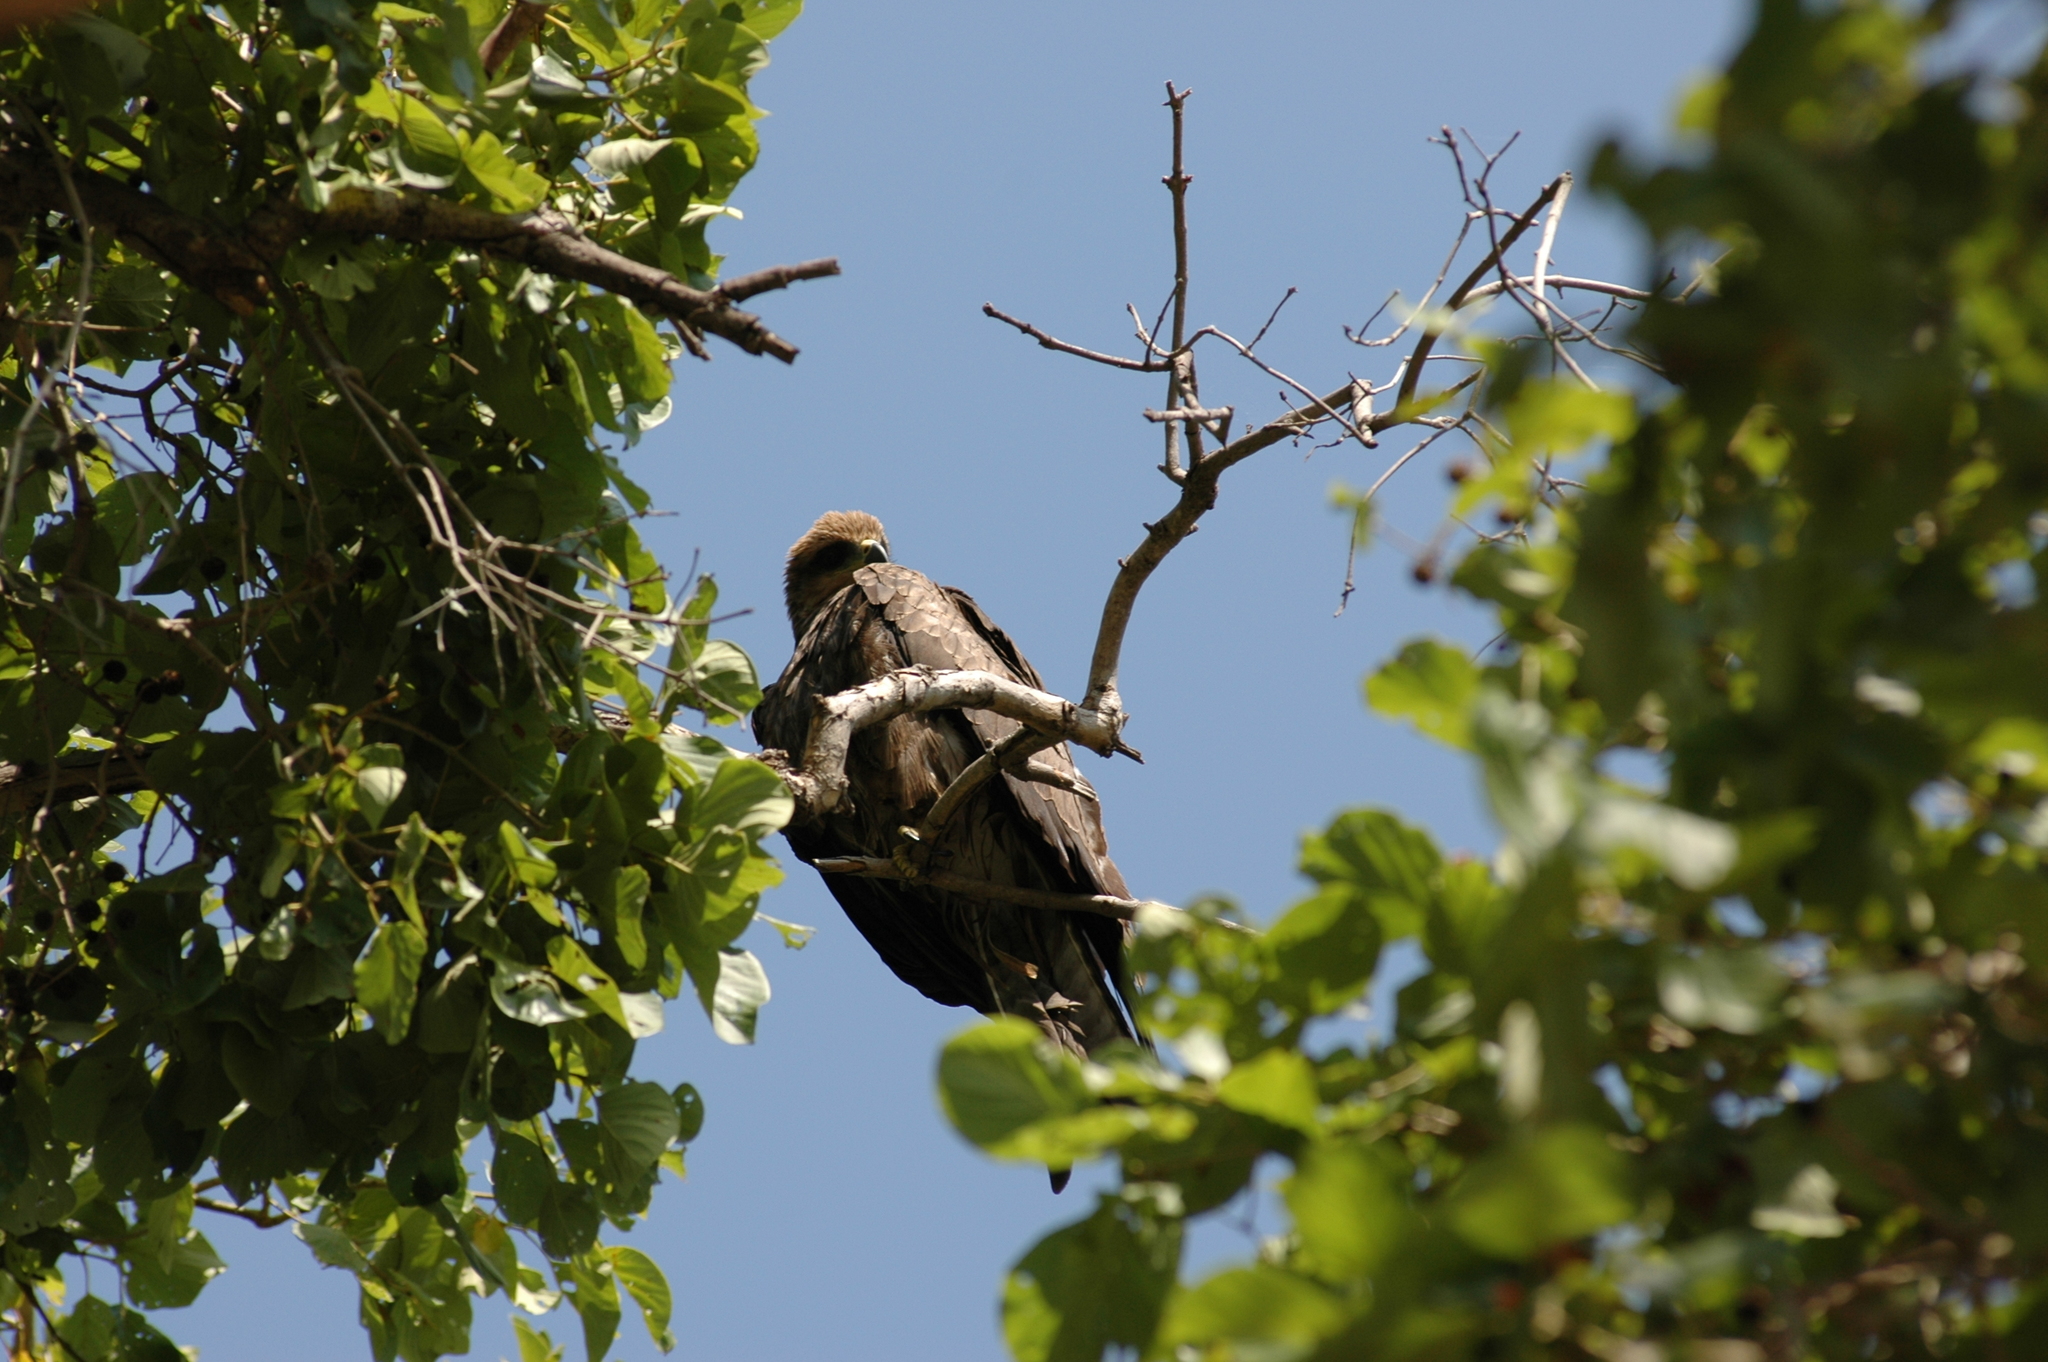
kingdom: Animalia
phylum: Chordata
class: Aves
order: Accipitriformes
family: Accipitridae
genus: Milvus
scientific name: Milvus migrans
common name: Black kite
